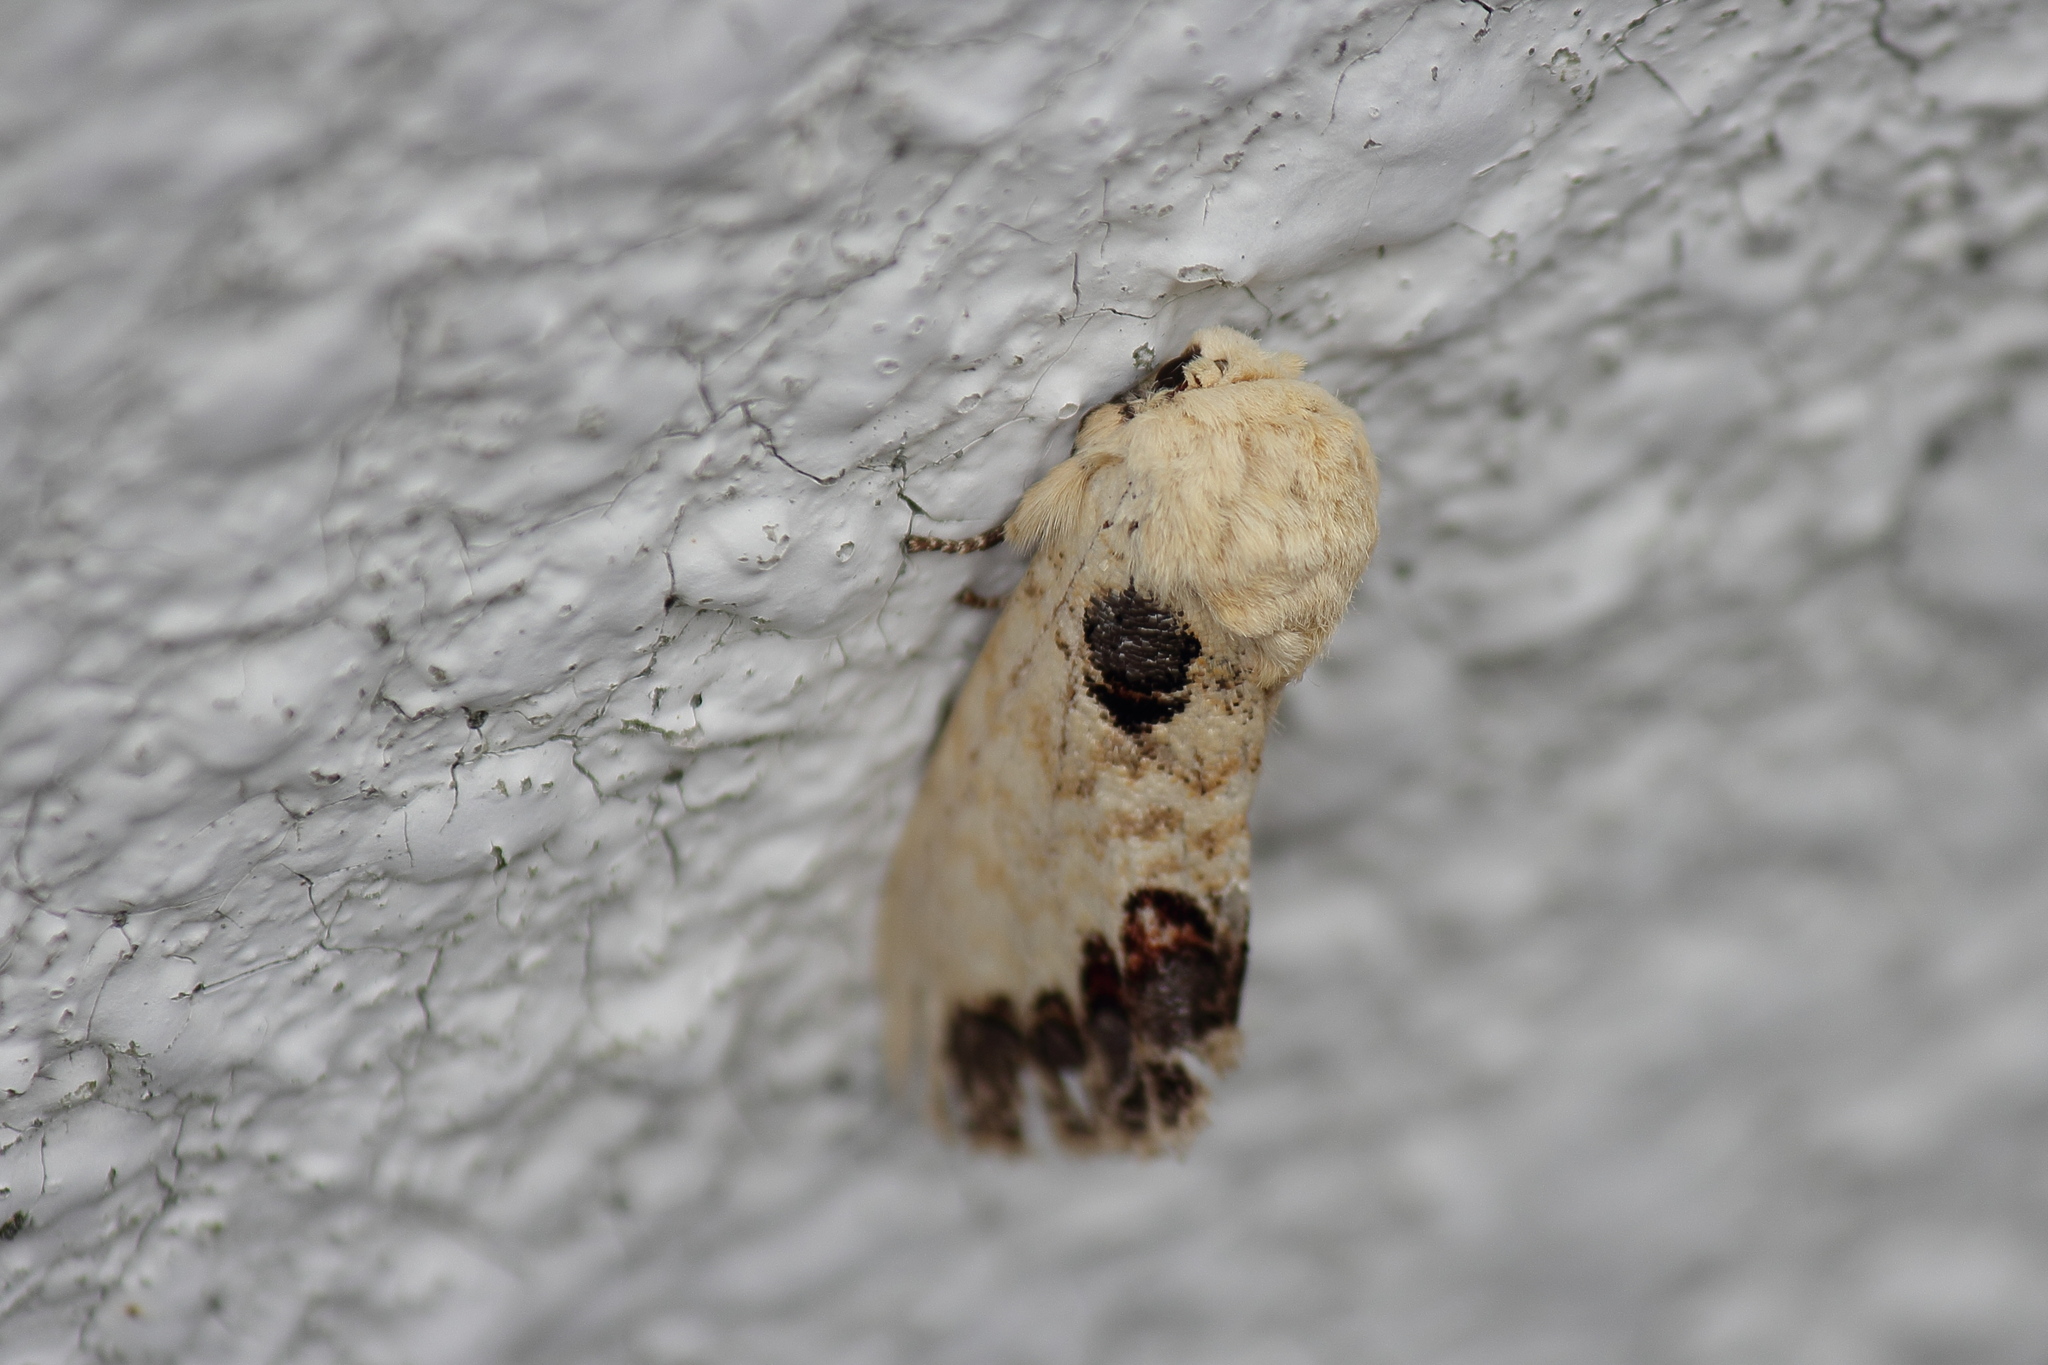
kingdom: Animalia
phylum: Arthropoda
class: Insecta
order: Lepidoptera
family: Notodontidae
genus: Phalera
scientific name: Phalera flavescens
